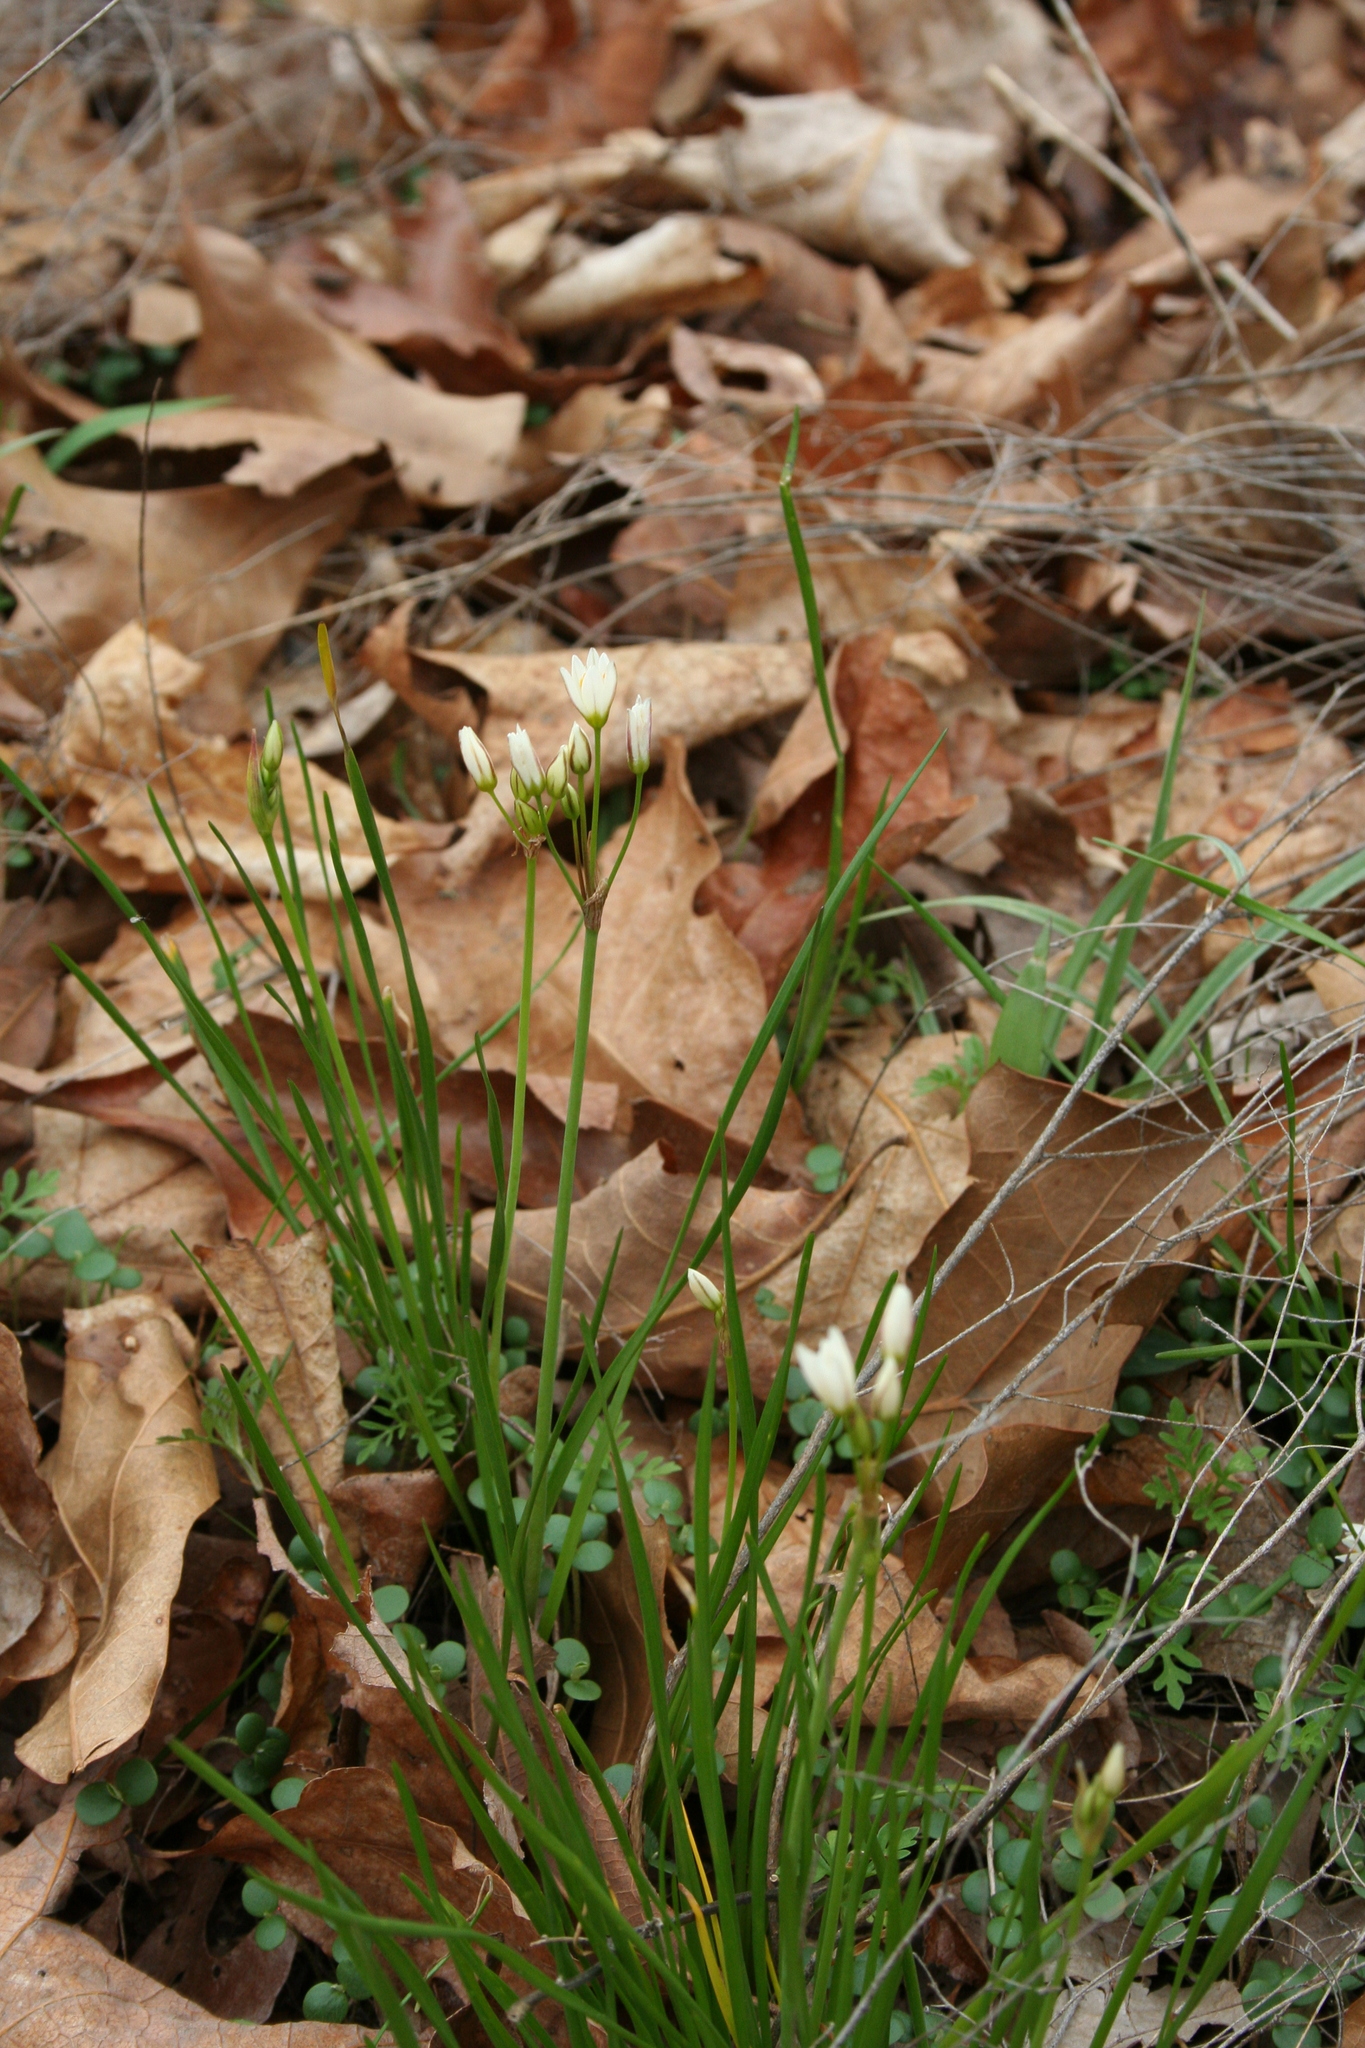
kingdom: Plantae
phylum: Tracheophyta
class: Liliopsida
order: Asparagales
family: Amaryllidaceae
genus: Nothoscordum
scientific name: Nothoscordum bivalve
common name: Crow-poison
